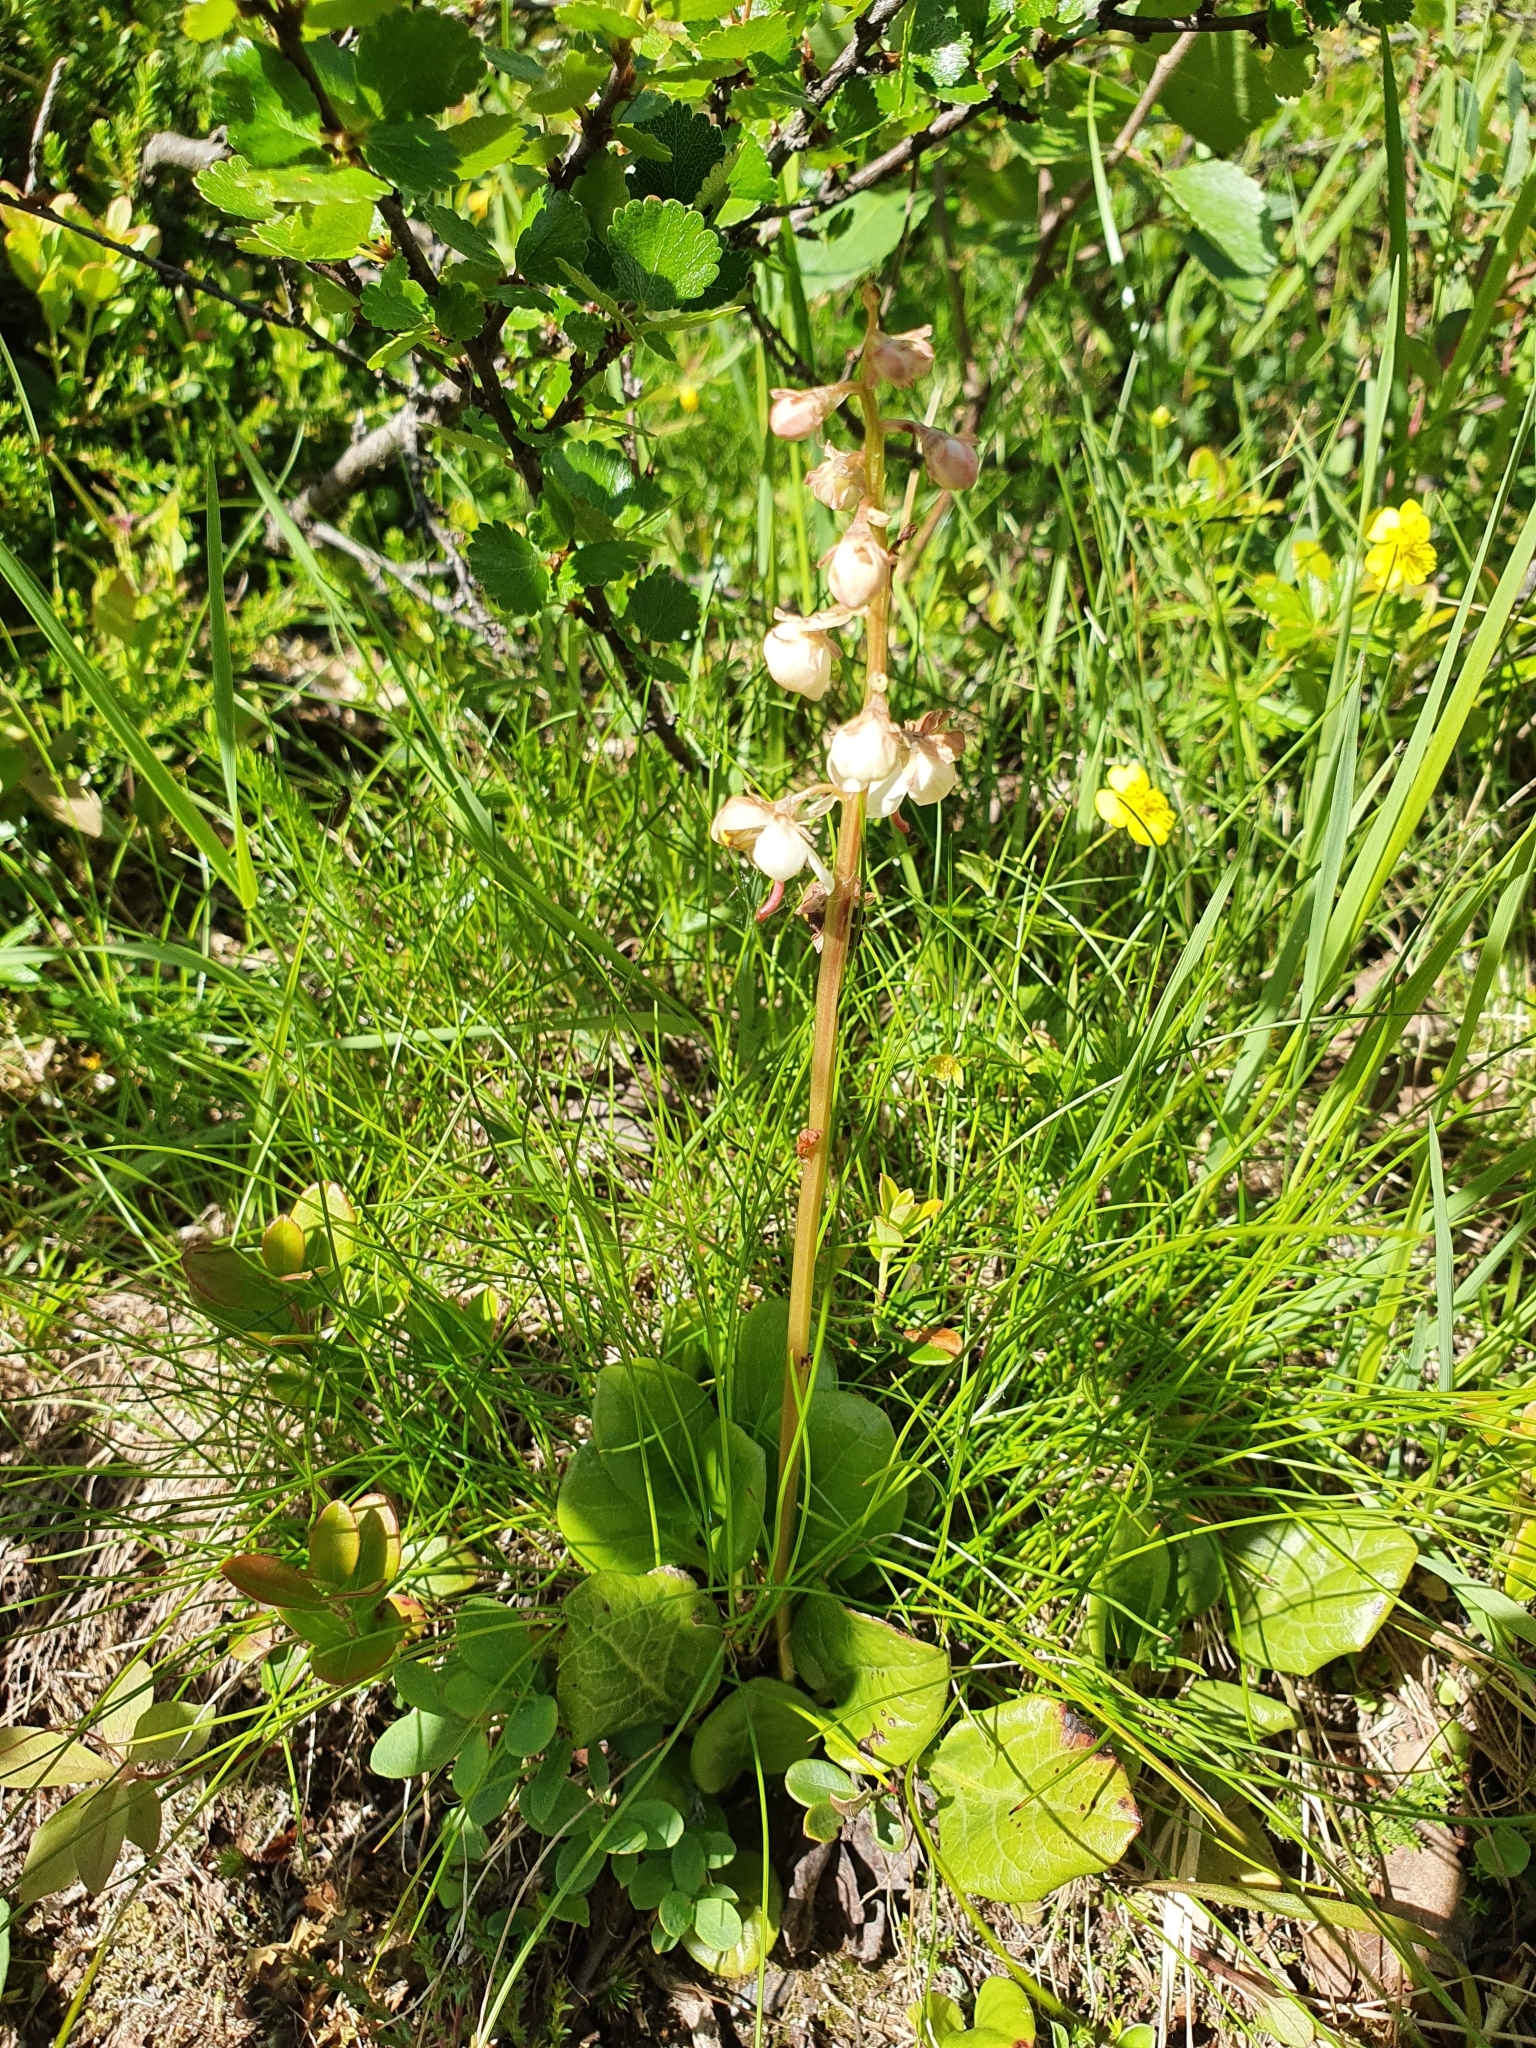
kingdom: Plantae
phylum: Tracheophyta
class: Magnoliopsida
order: Ericales
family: Ericaceae
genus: Pyrola
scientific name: Pyrola rotundifolia
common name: Round-leaved wintergreen
